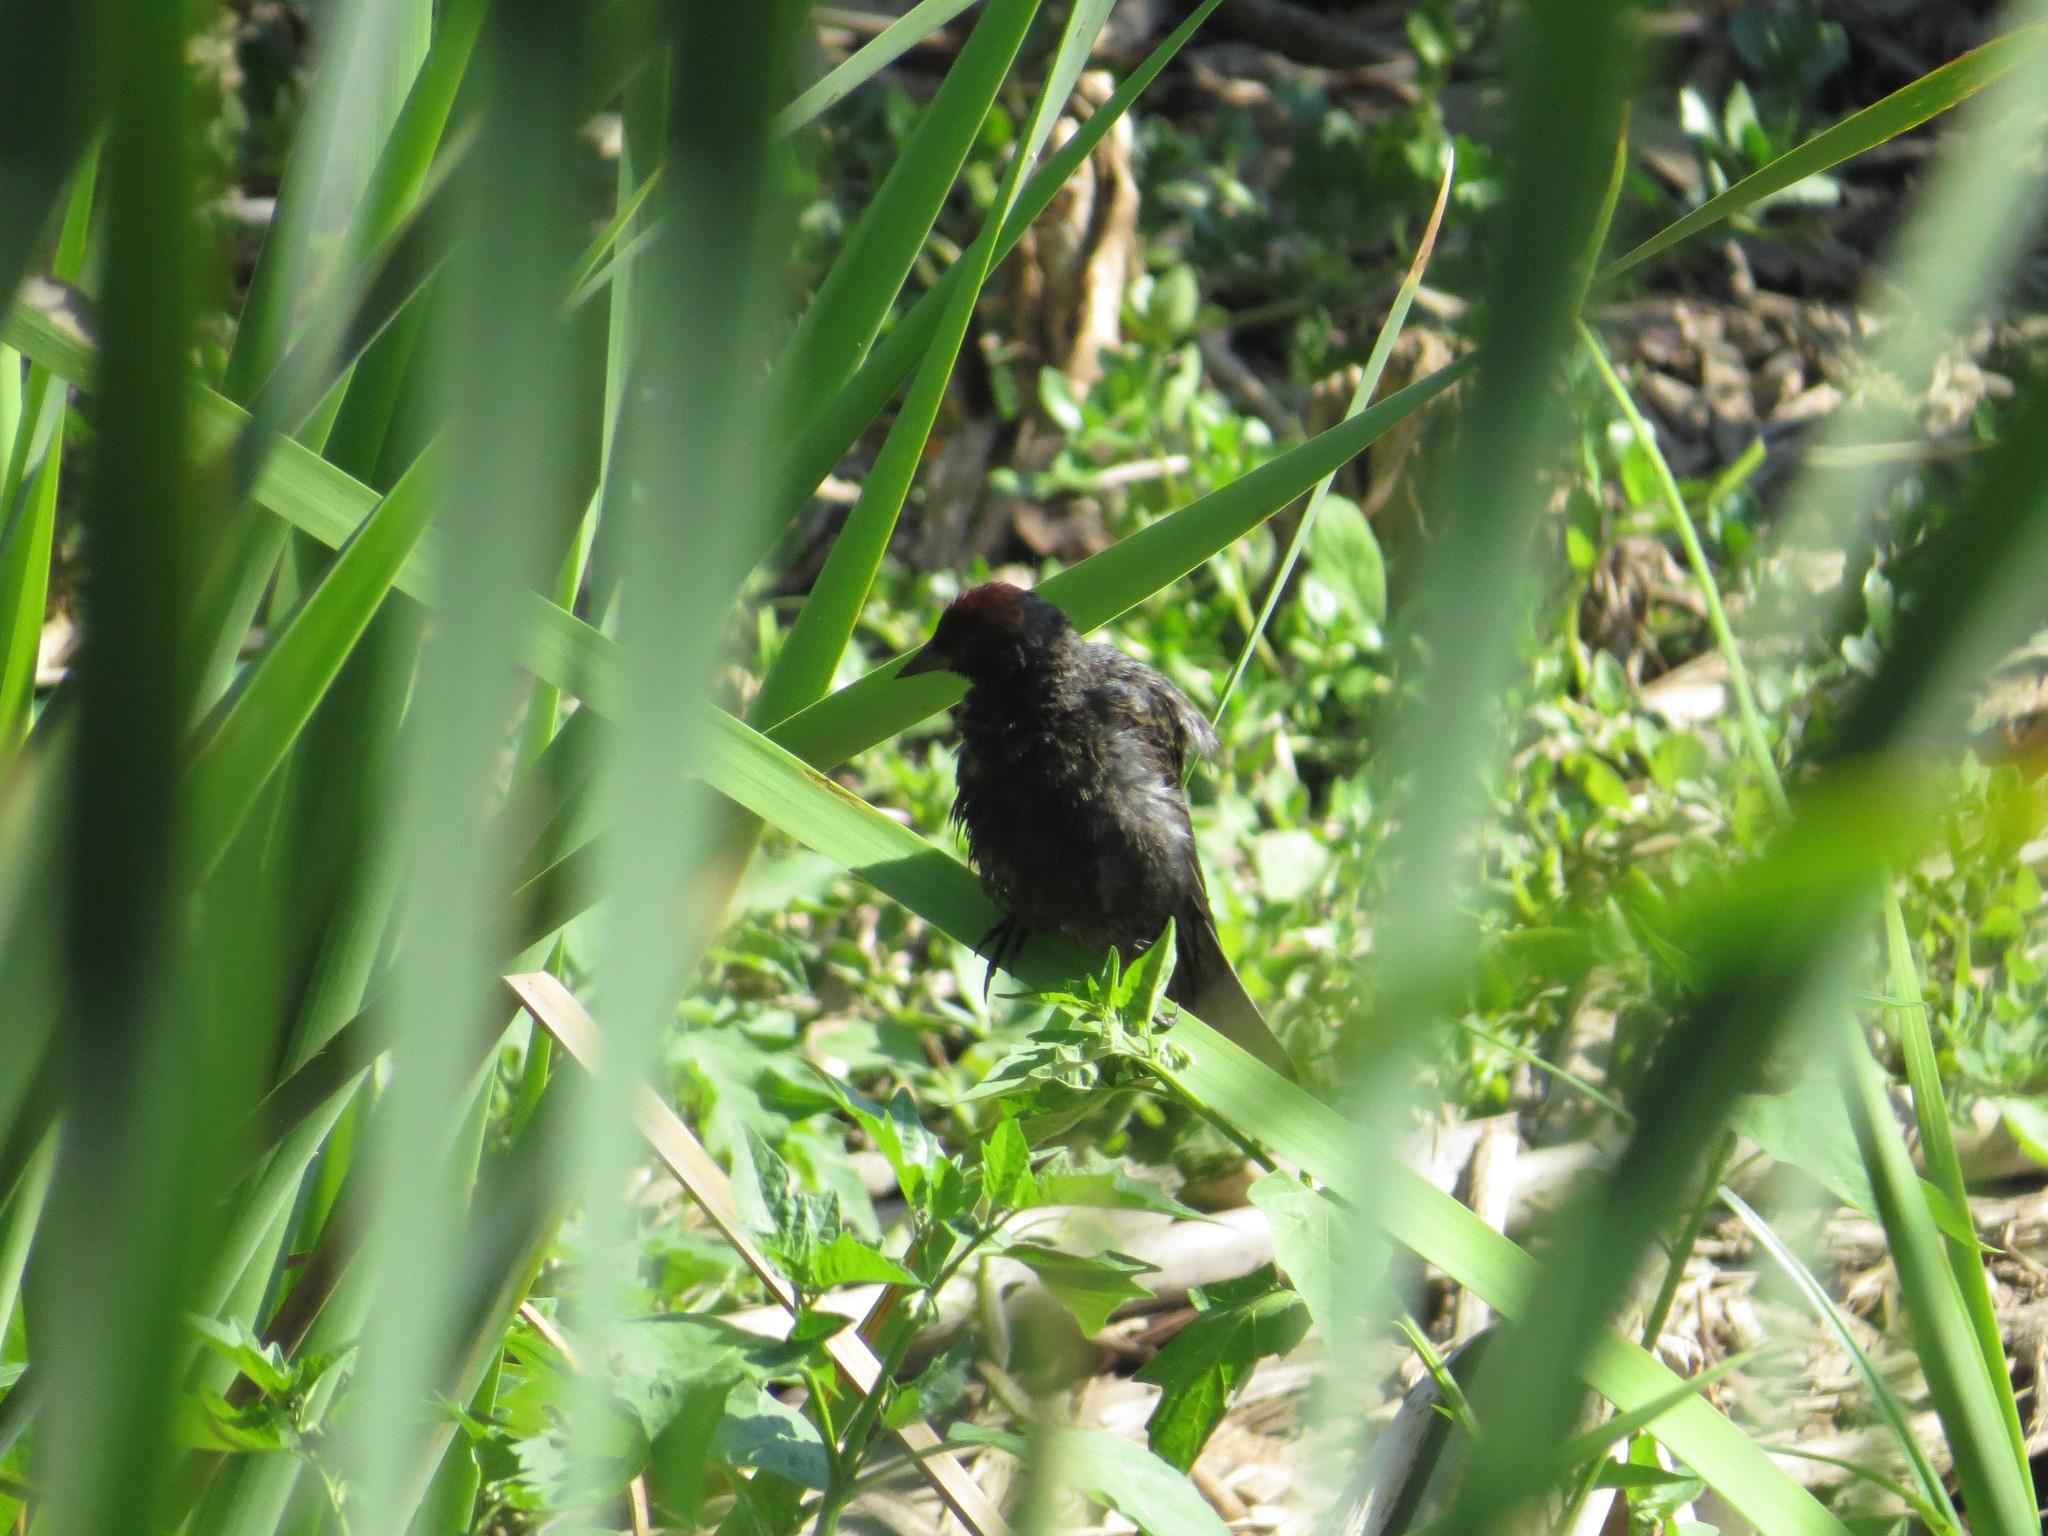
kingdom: Animalia
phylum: Chordata
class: Aves
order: Passeriformes
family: Icteridae
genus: Chrysomus
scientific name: Chrysomus ruficapillus
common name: Chestnut-capped blackbird
